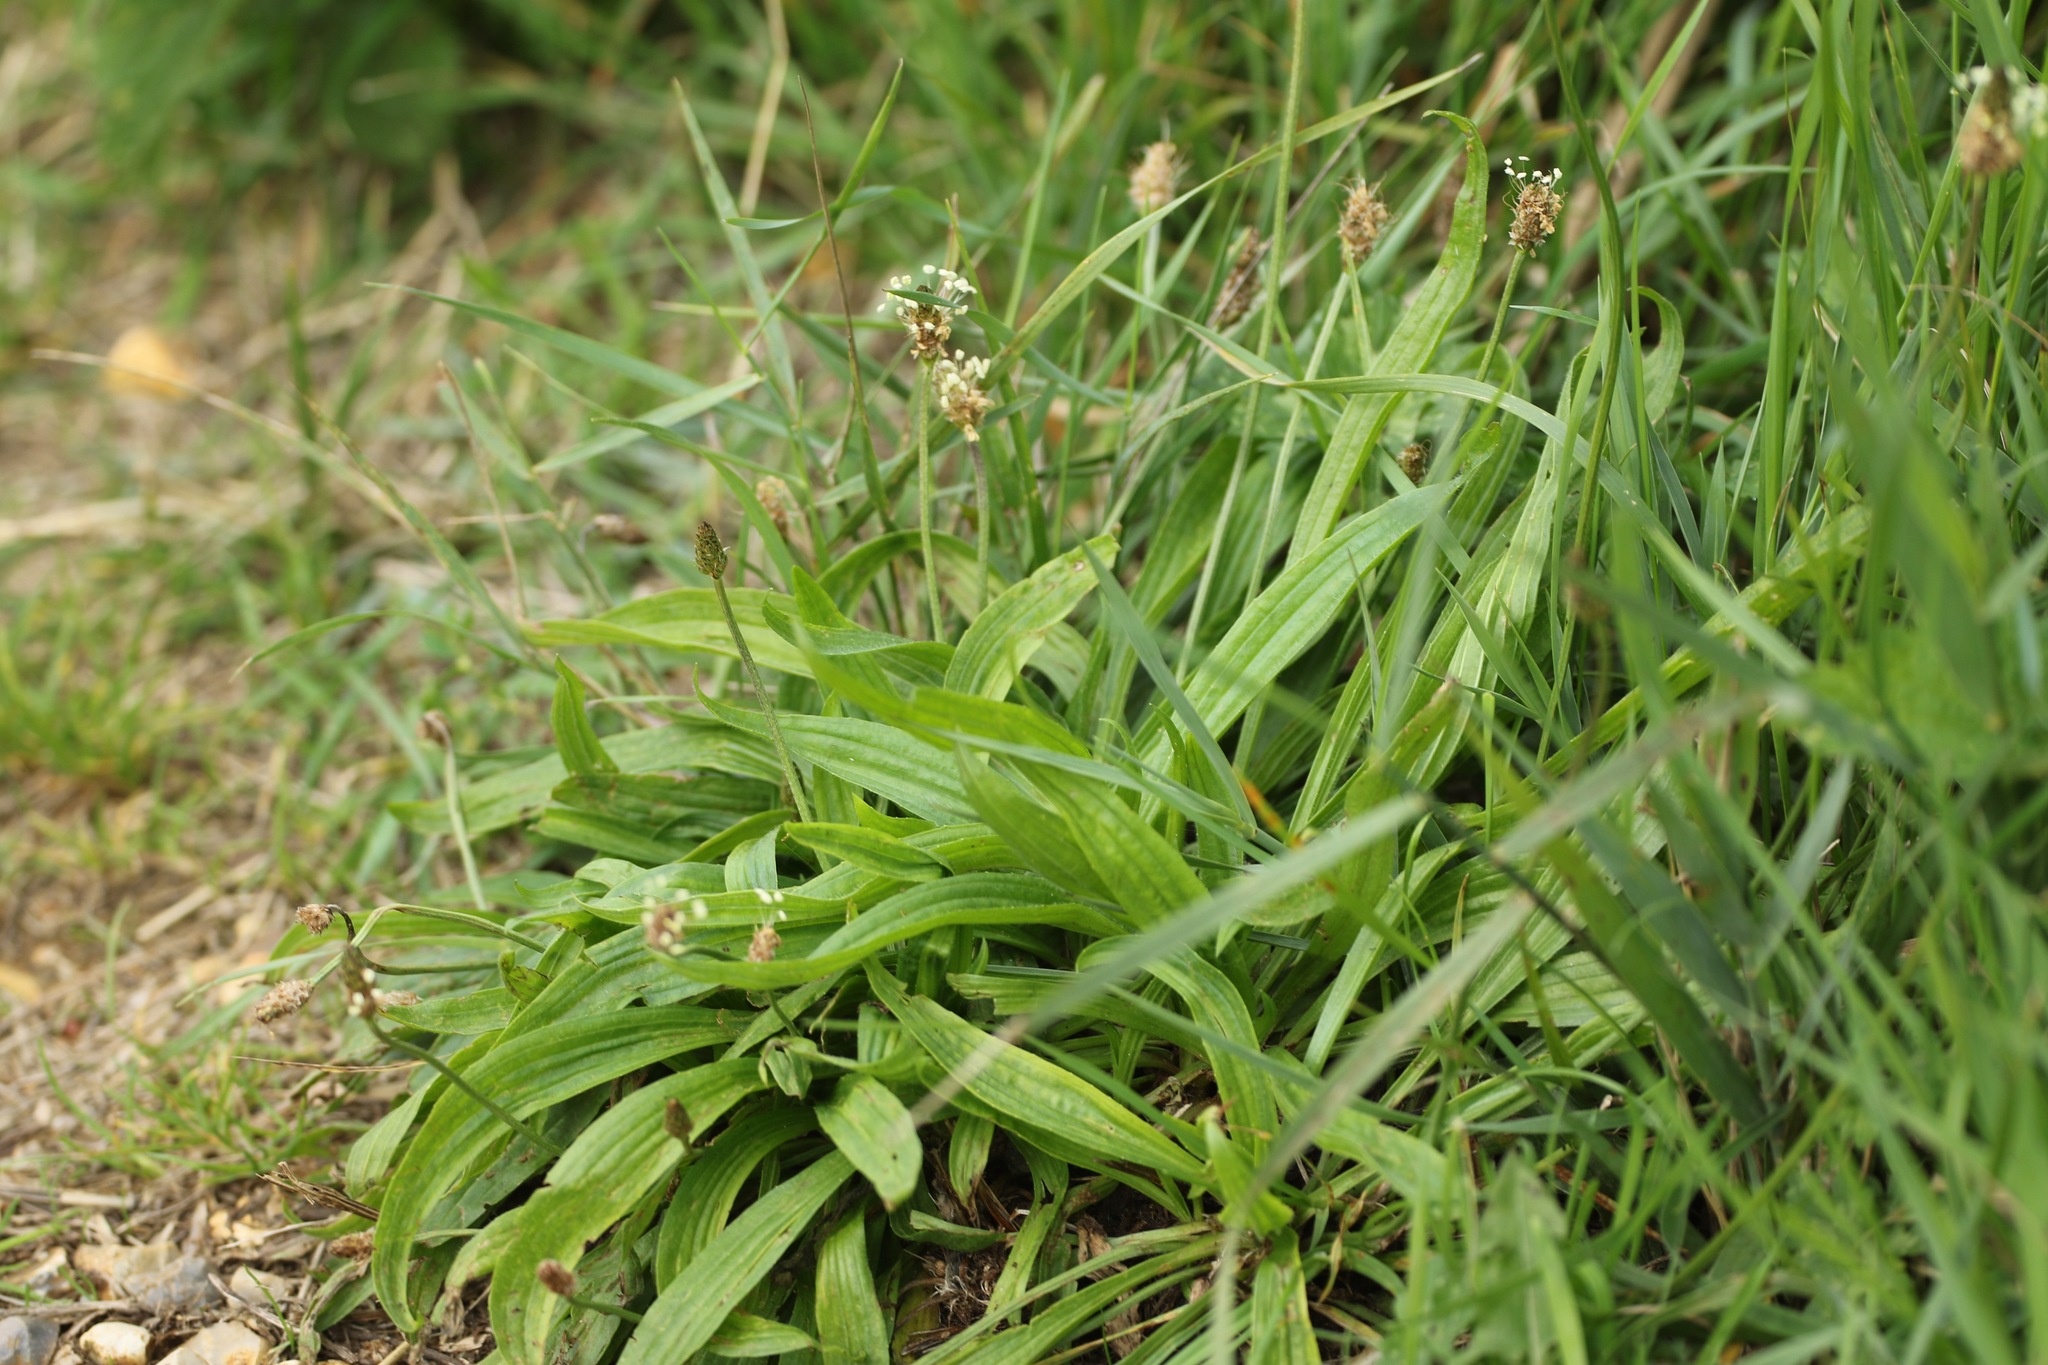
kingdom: Plantae
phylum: Tracheophyta
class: Magnoliopsida
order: Lamiales
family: Plantaginaceae
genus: Plantago
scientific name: Plantago lanceolata
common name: Ribwort plantain
